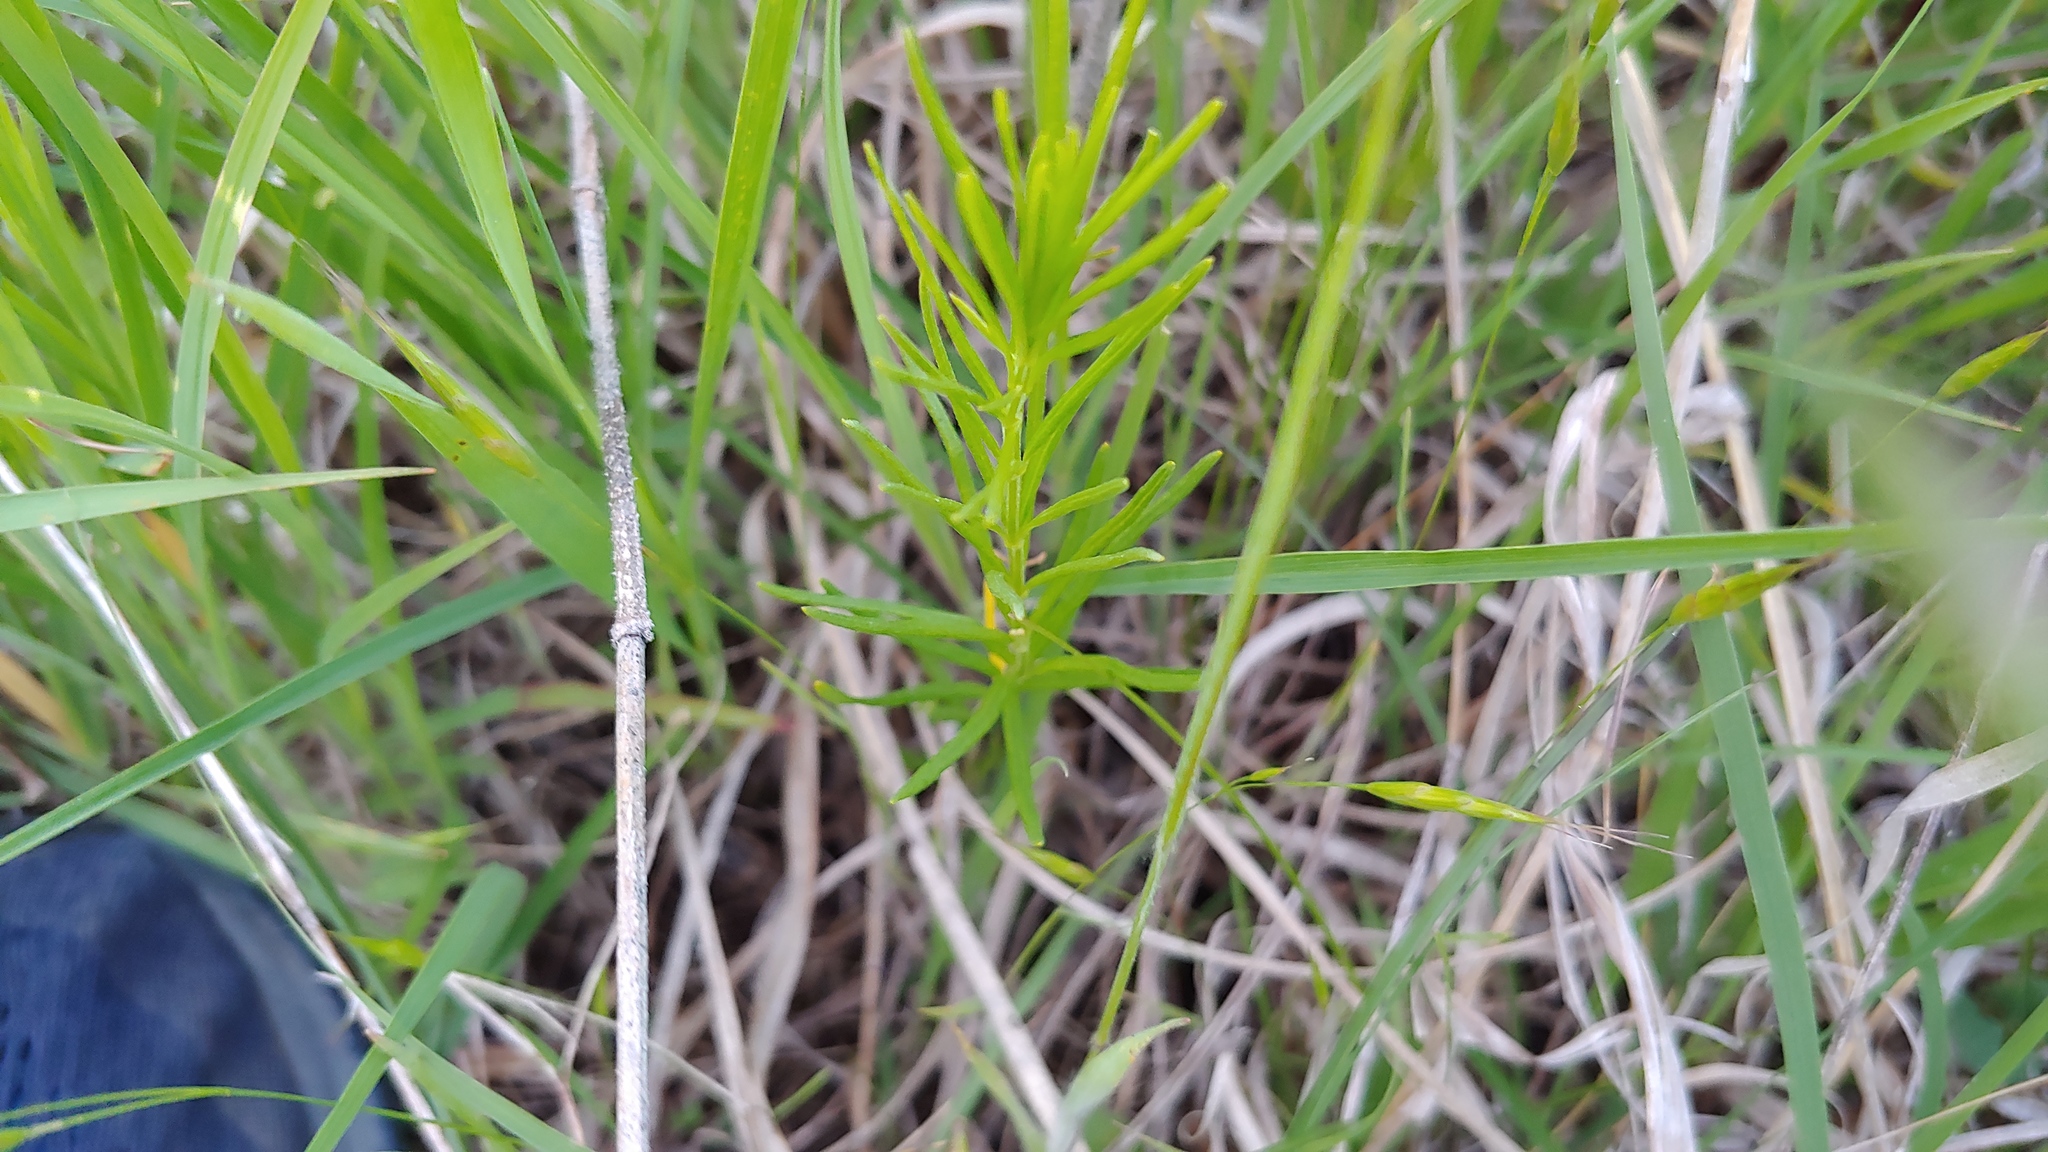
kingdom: Plantae
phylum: Tracheophyta
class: Magnoliopsida
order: Gentianales
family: Apocynaceae
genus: Asclepias
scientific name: Asclepias verticillata
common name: Eastern whorled milkweed
